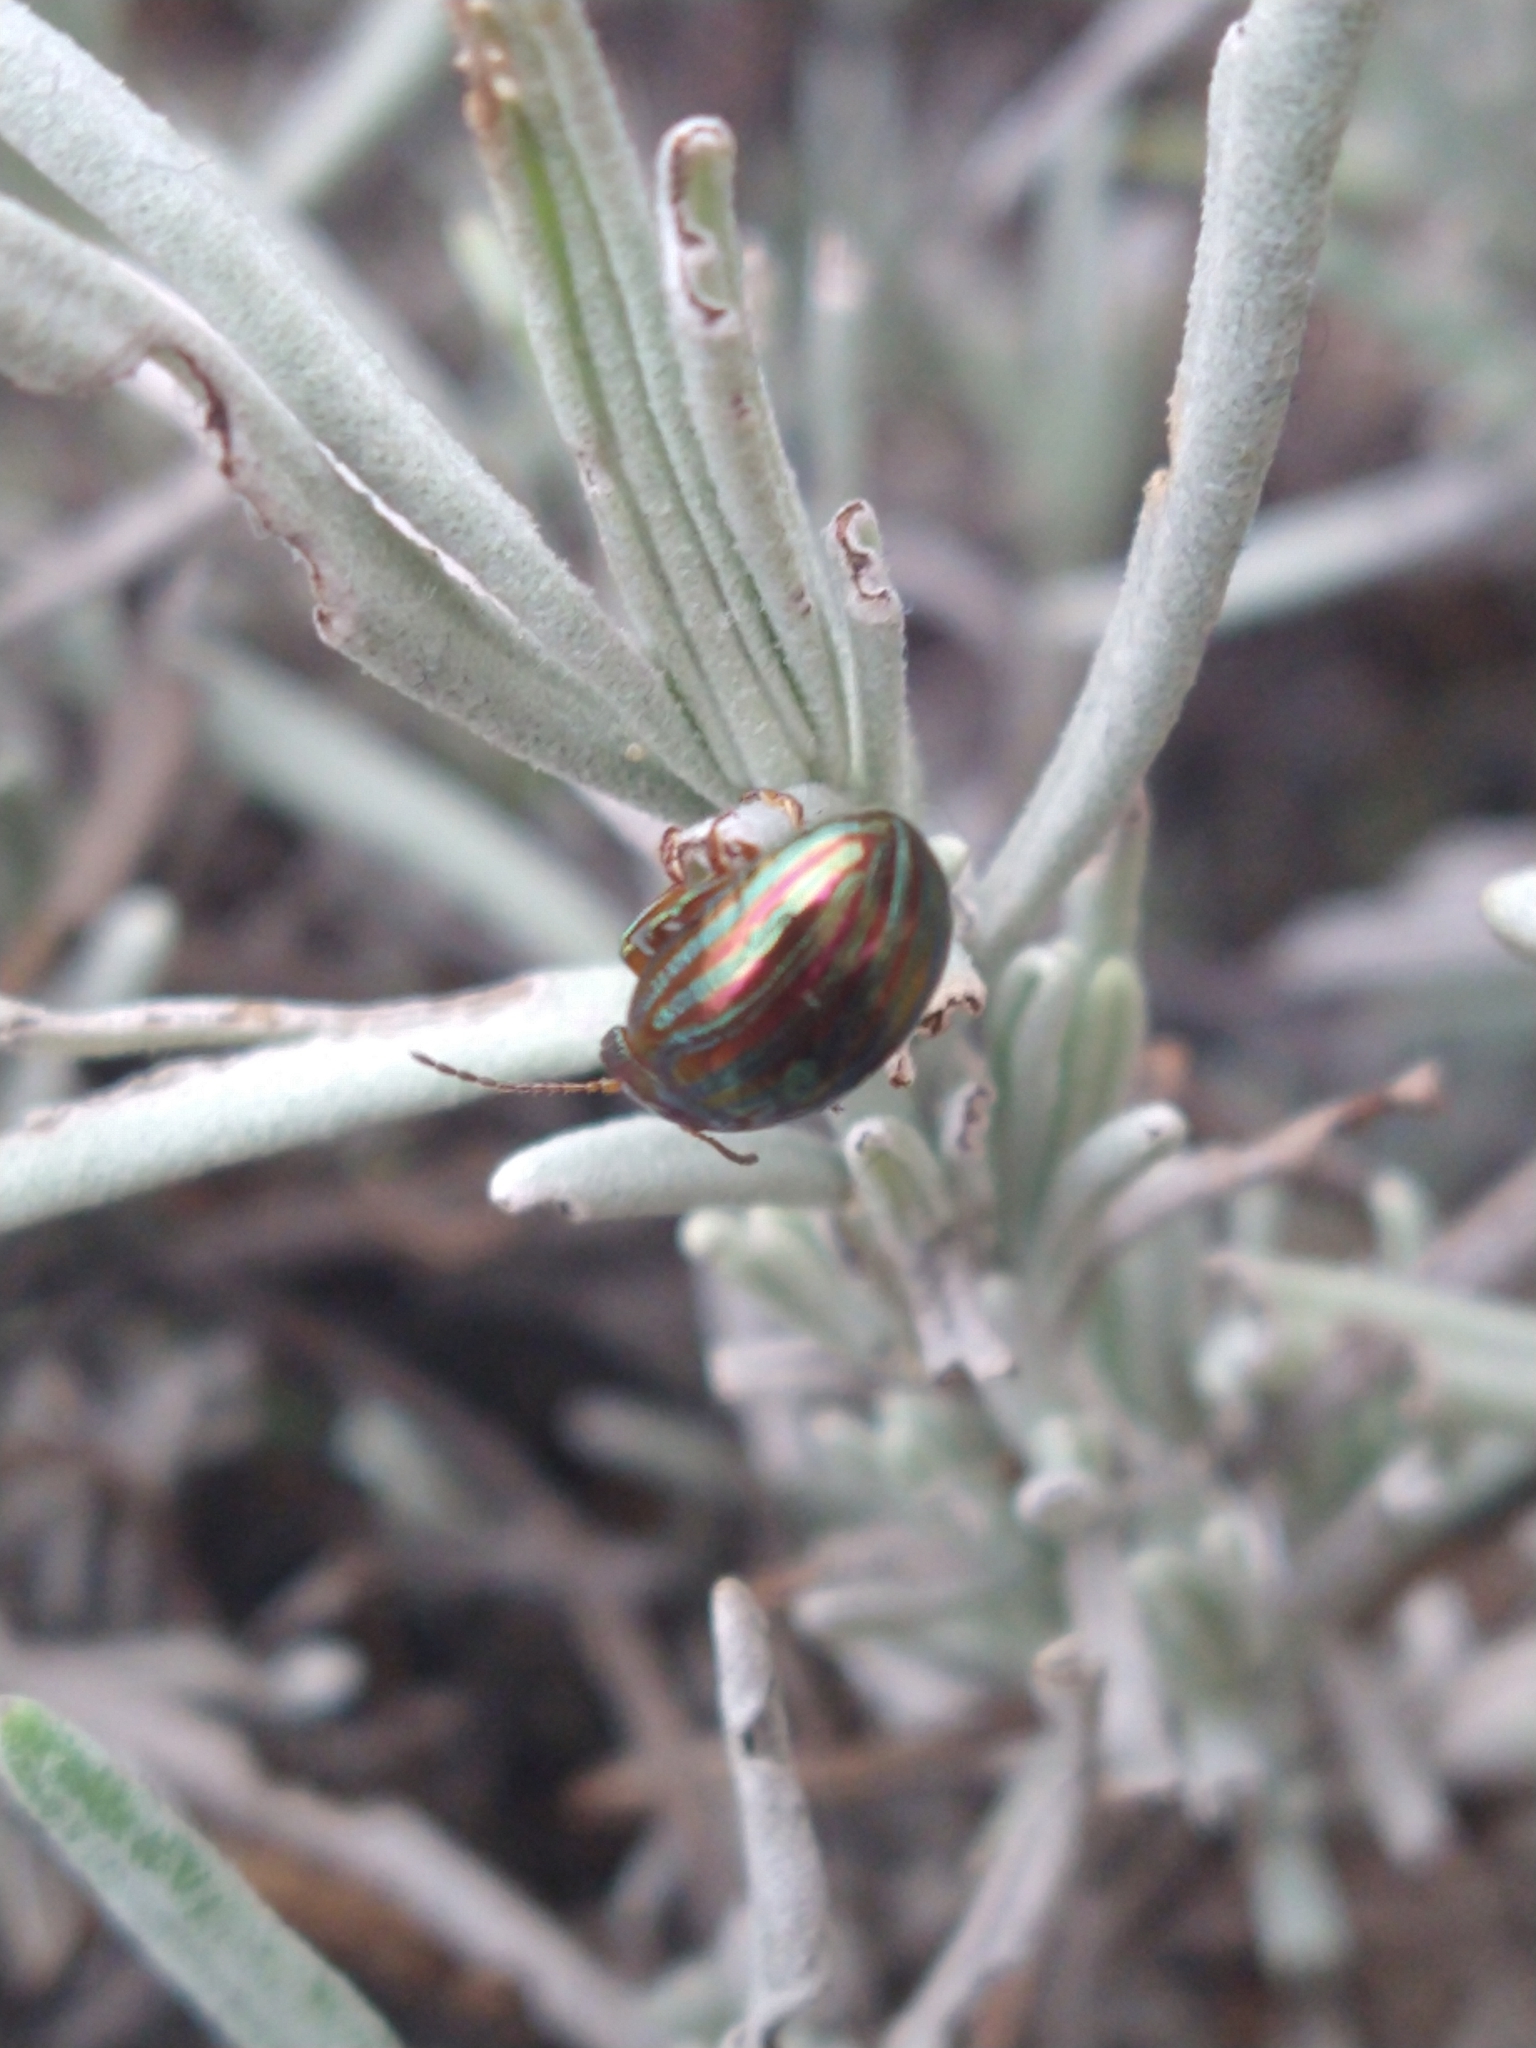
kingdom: Animalia
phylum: Arthropoda
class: Insecta
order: Coleoptera
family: Chrysomelidae
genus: Chrysolina
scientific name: Chrysolina americana
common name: Rosemary beetle
